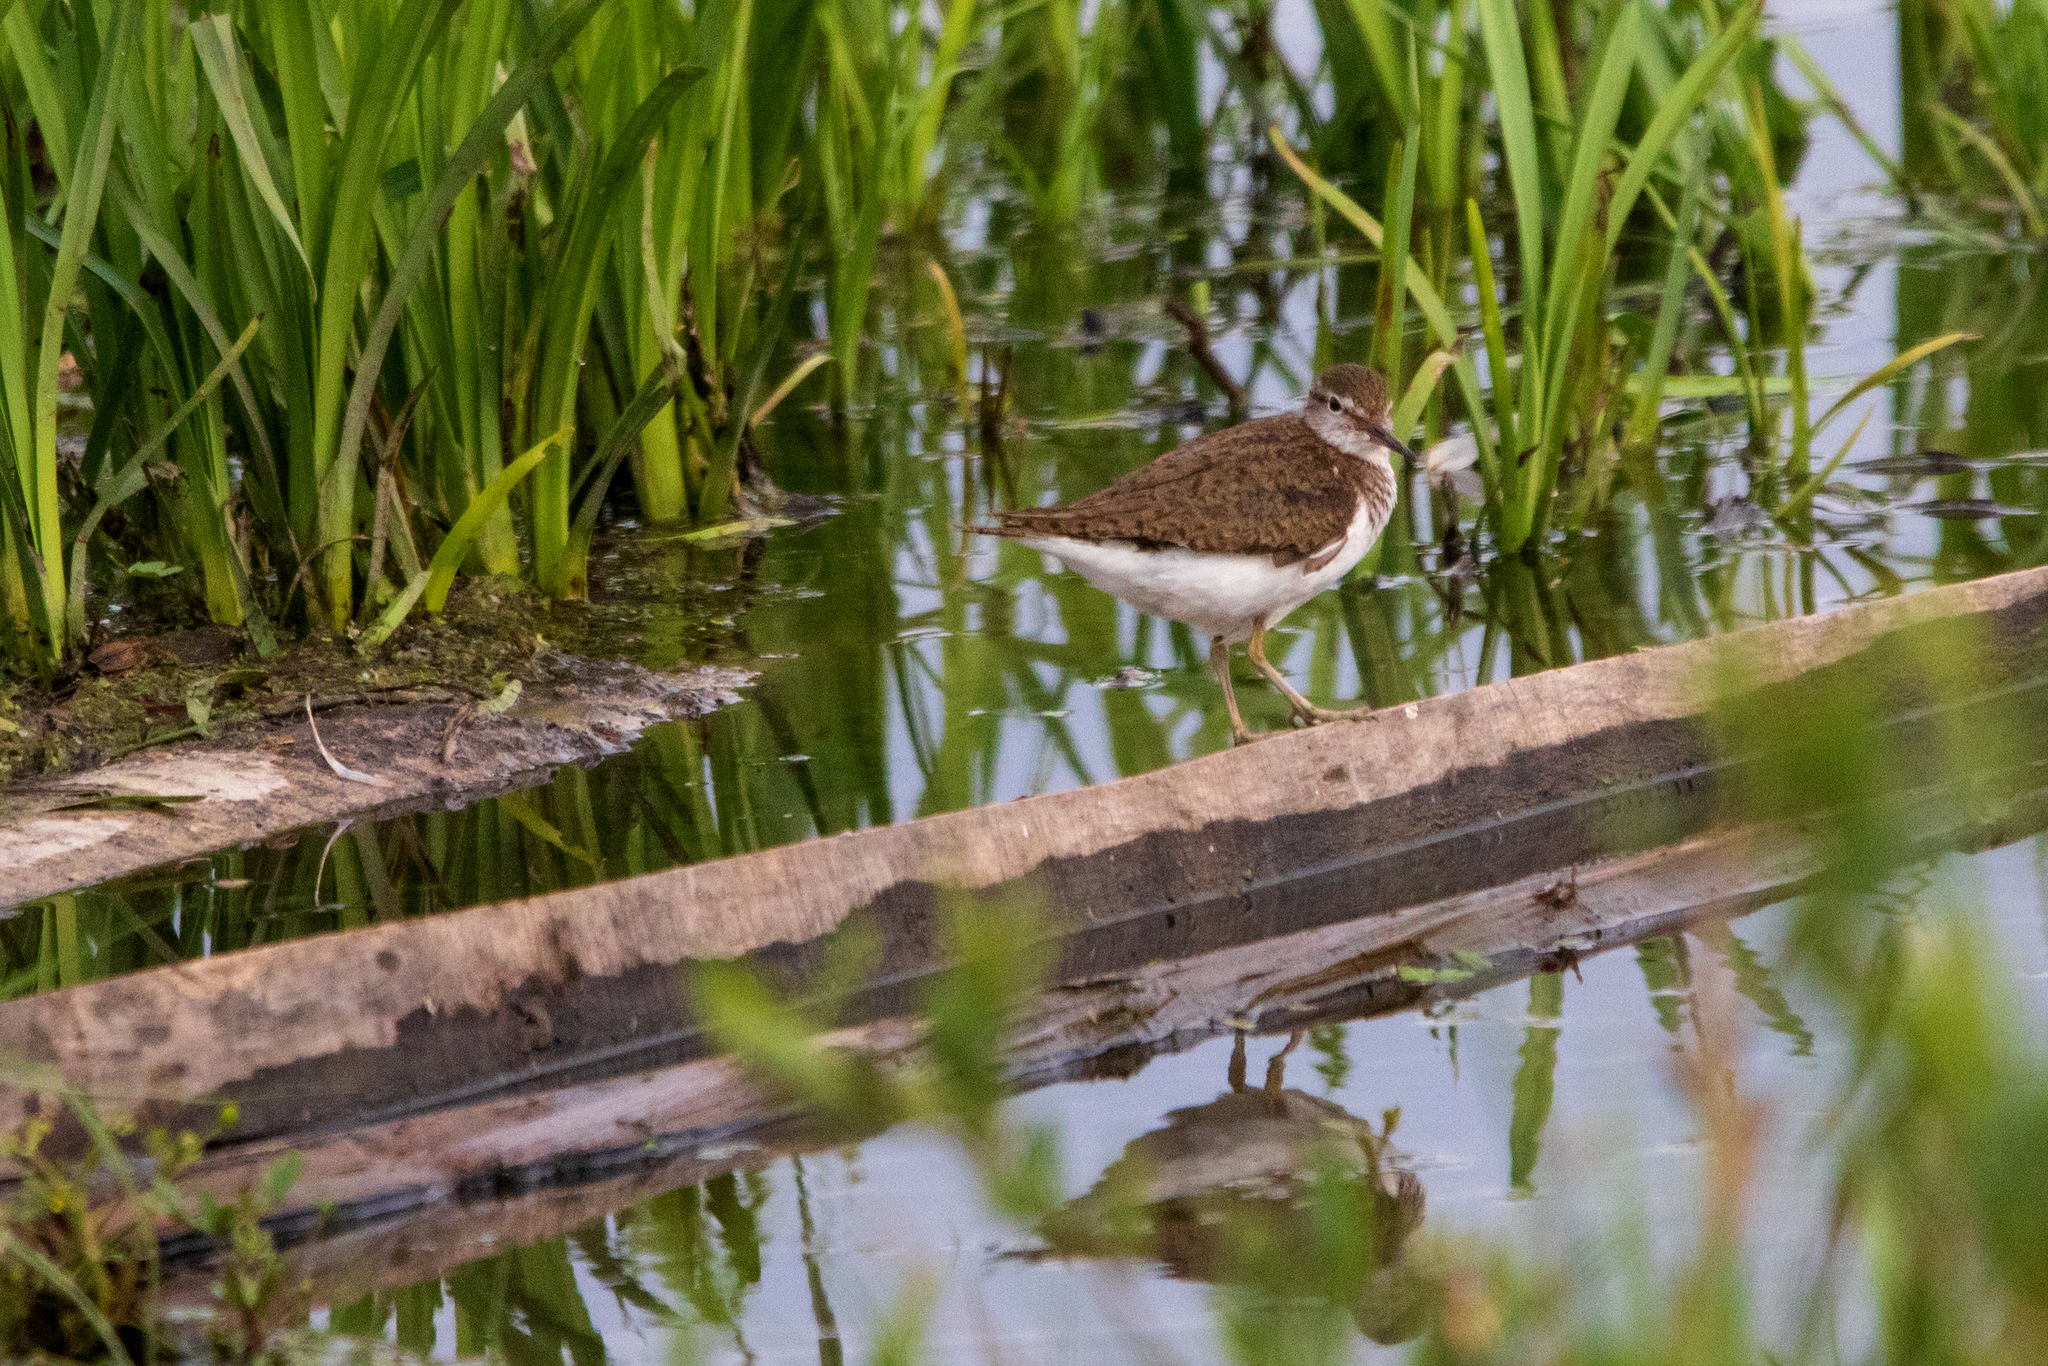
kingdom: Animalia
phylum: Chordata
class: Aves
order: Charadriiformes
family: Scolopacidae
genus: Actitis
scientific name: Actitis hypoleucos
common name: Common sandpiper
